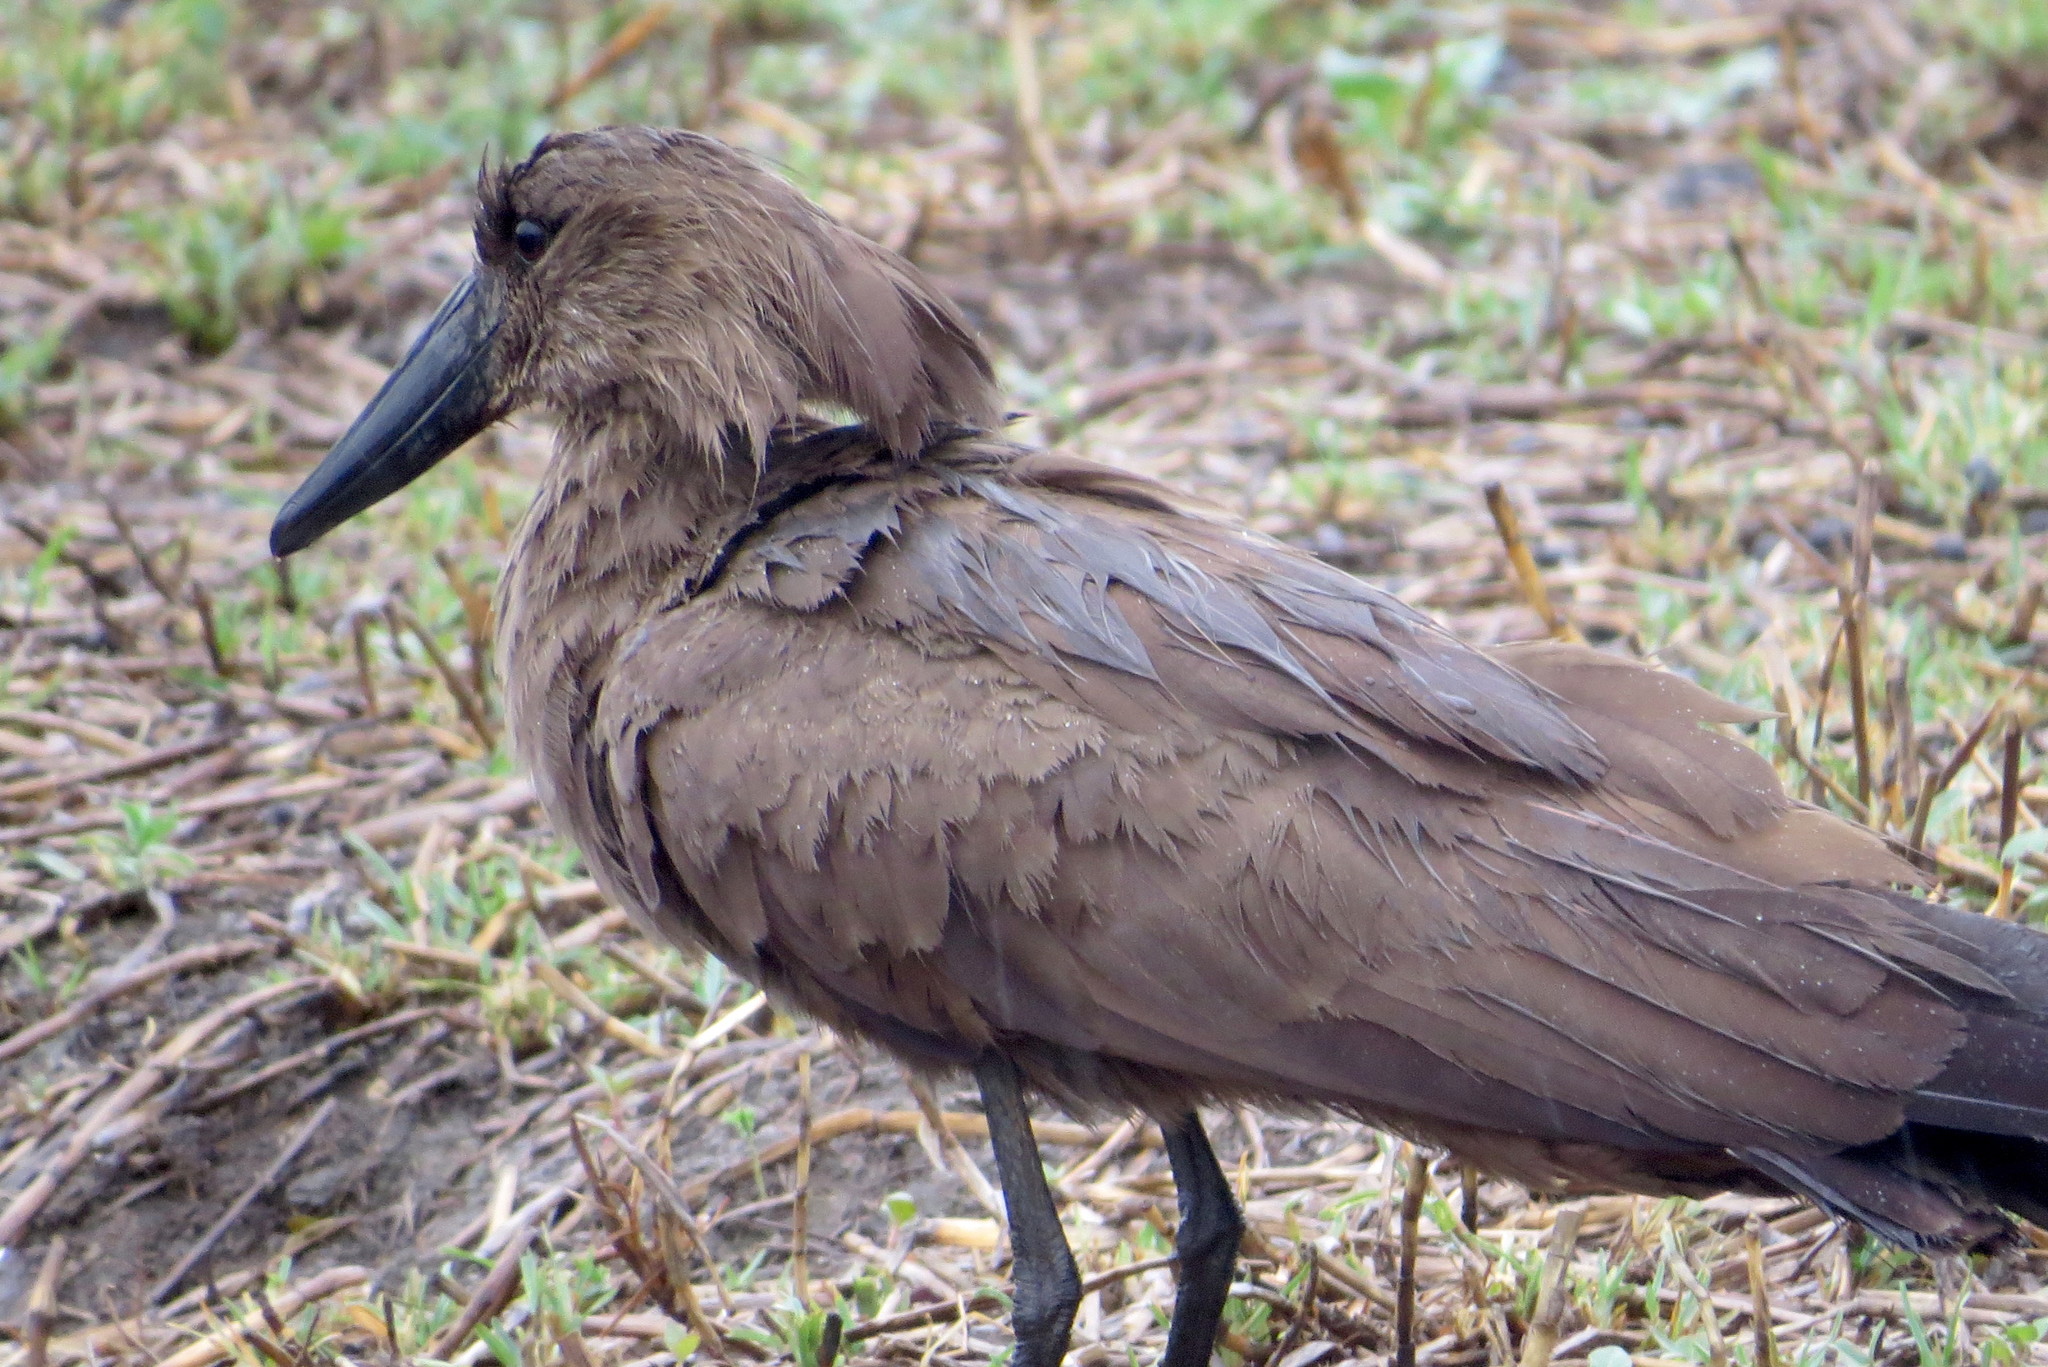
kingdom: Animalia
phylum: Chordata
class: Aves
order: Pelecaniformes
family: Scopidae
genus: Scopus
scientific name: Scopus umbretta
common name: Hamerkop
